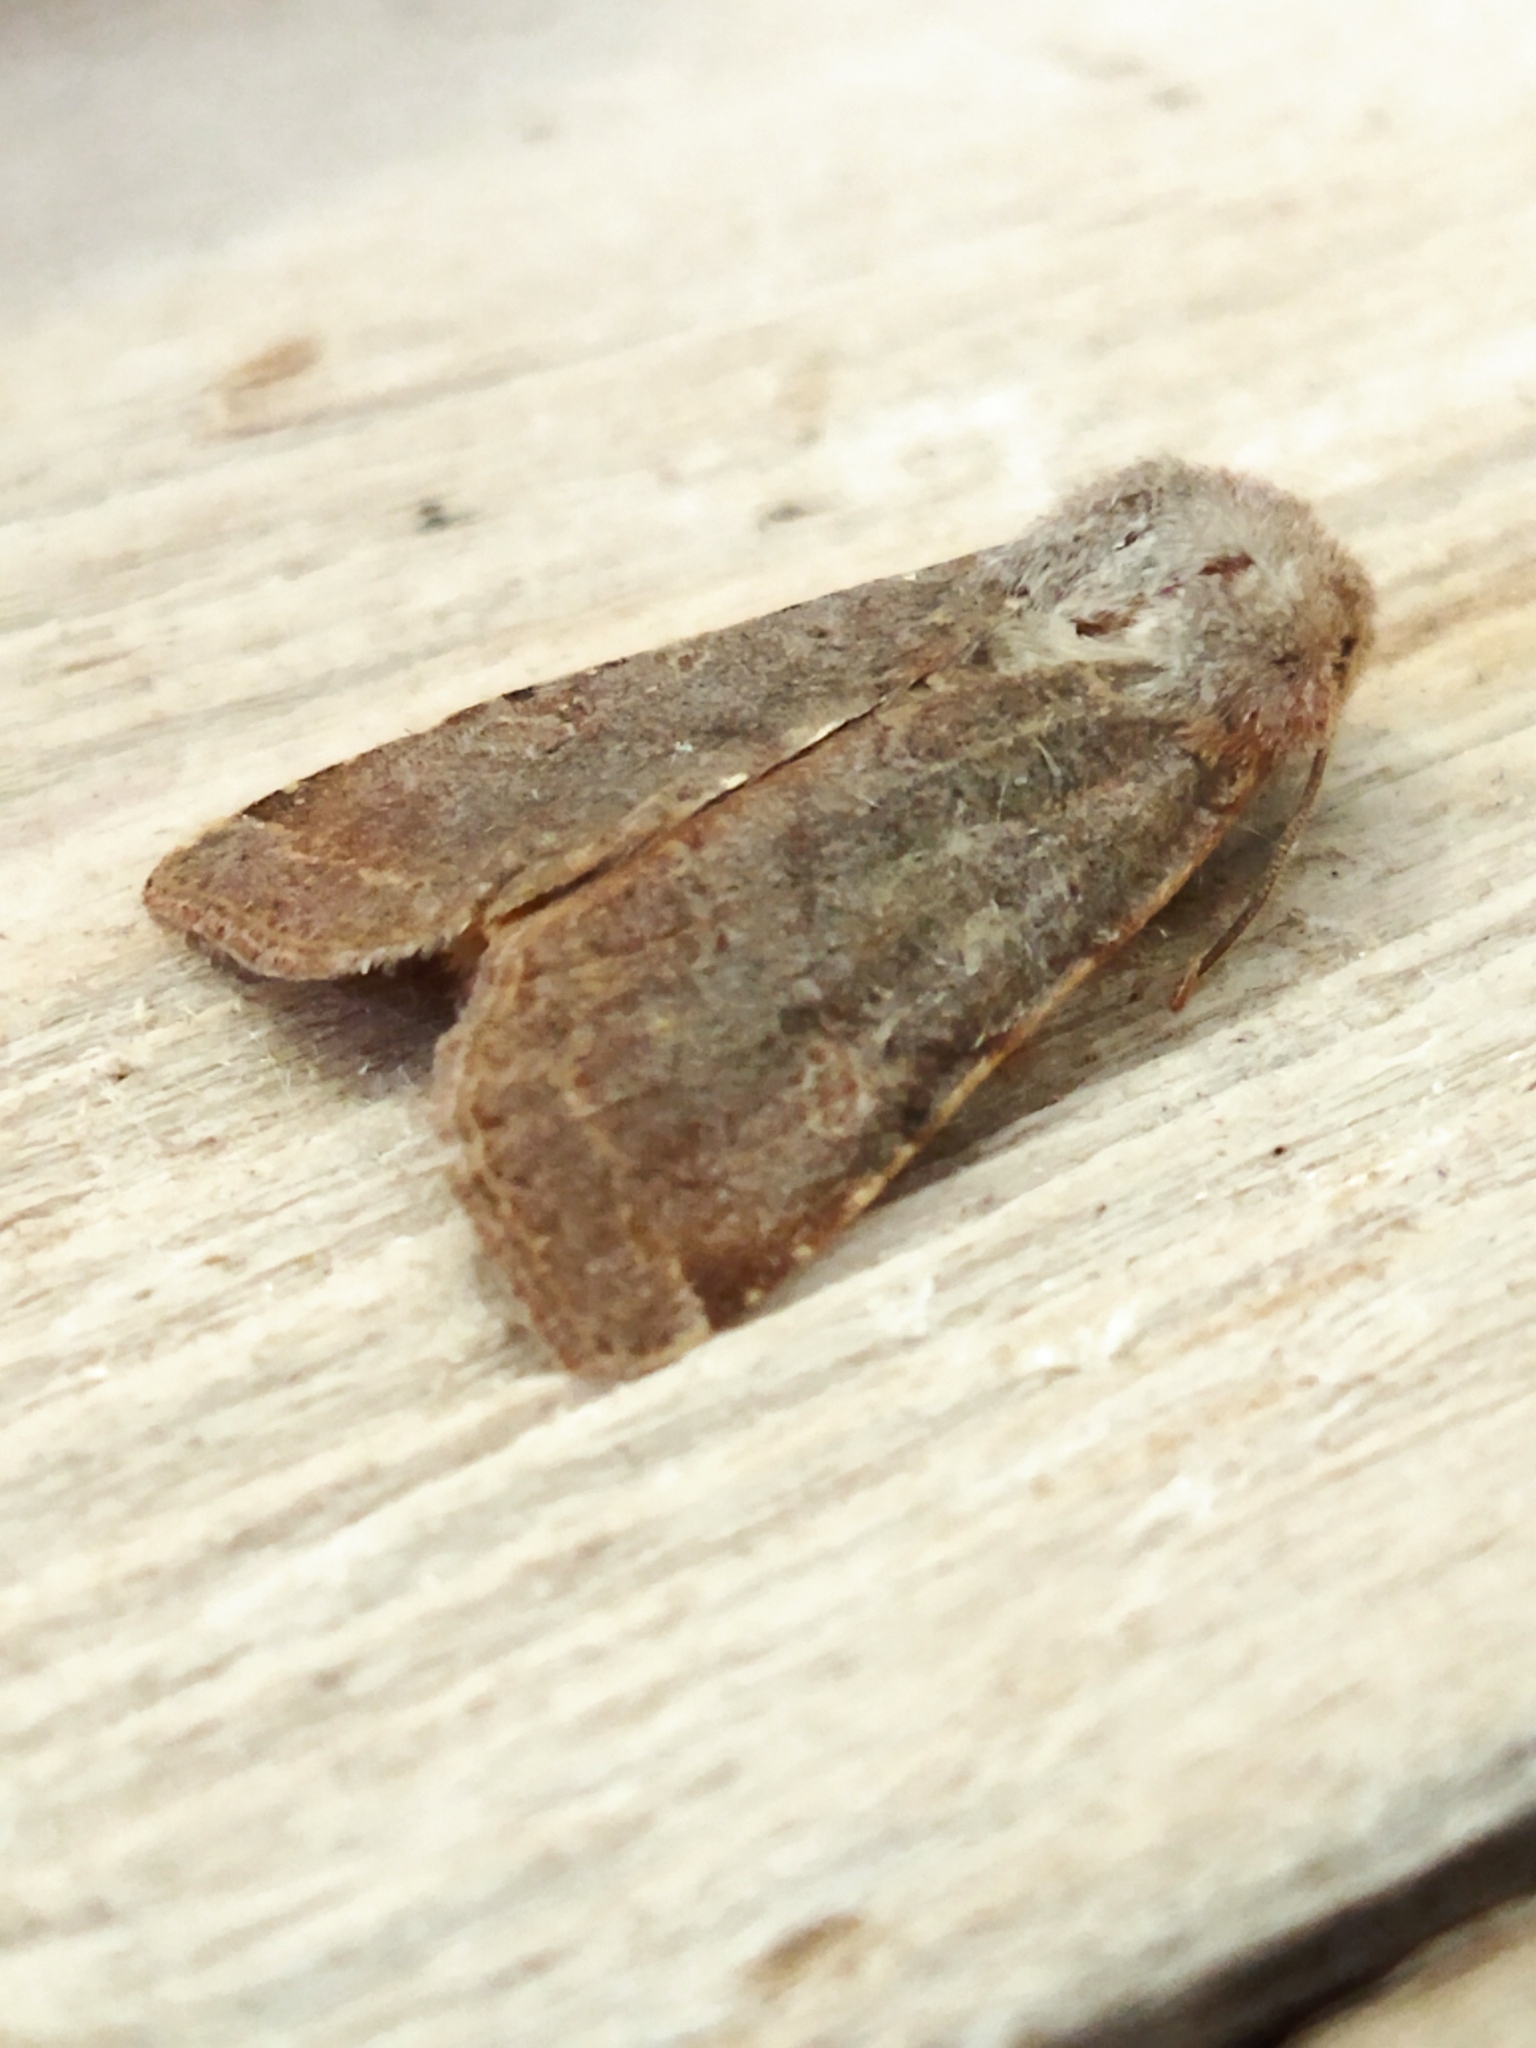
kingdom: Animalia
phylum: Arthropoda
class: Insecta
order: Lepidoptera
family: Noctuidae
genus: Agrochola
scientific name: Agrochola lychnidis
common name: Beaded chestnut
